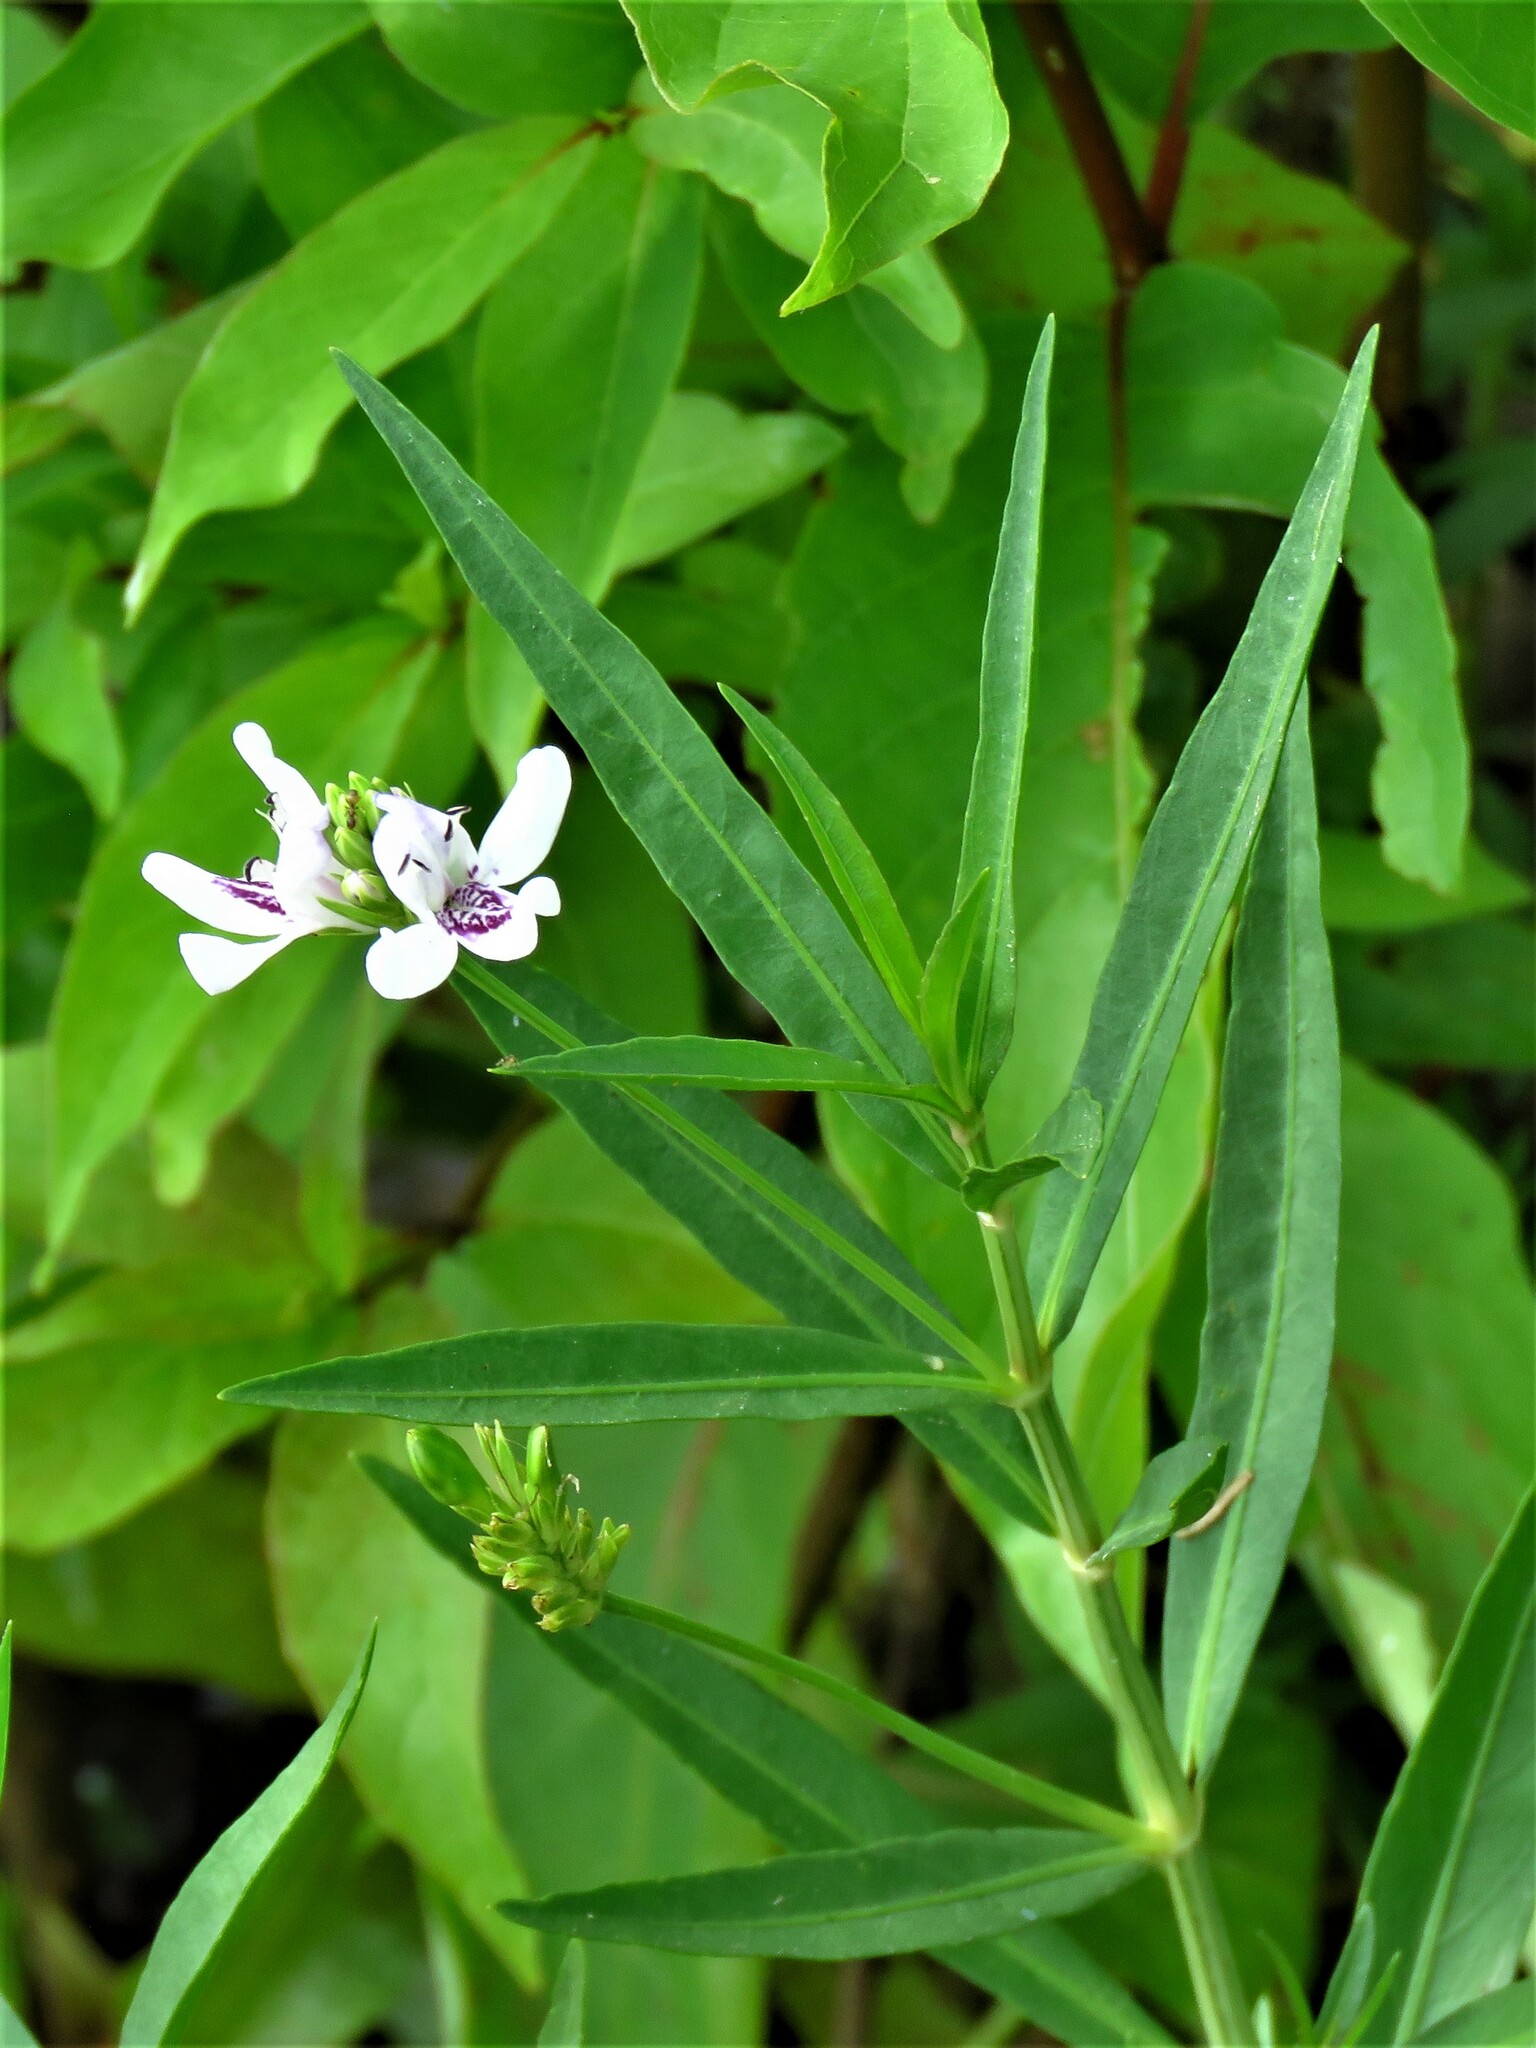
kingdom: Plantae
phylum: Tracheophyta
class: Magnoliopsida
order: Lamiales
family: Acanthaceae
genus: Dianthera
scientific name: Dianthera americana
